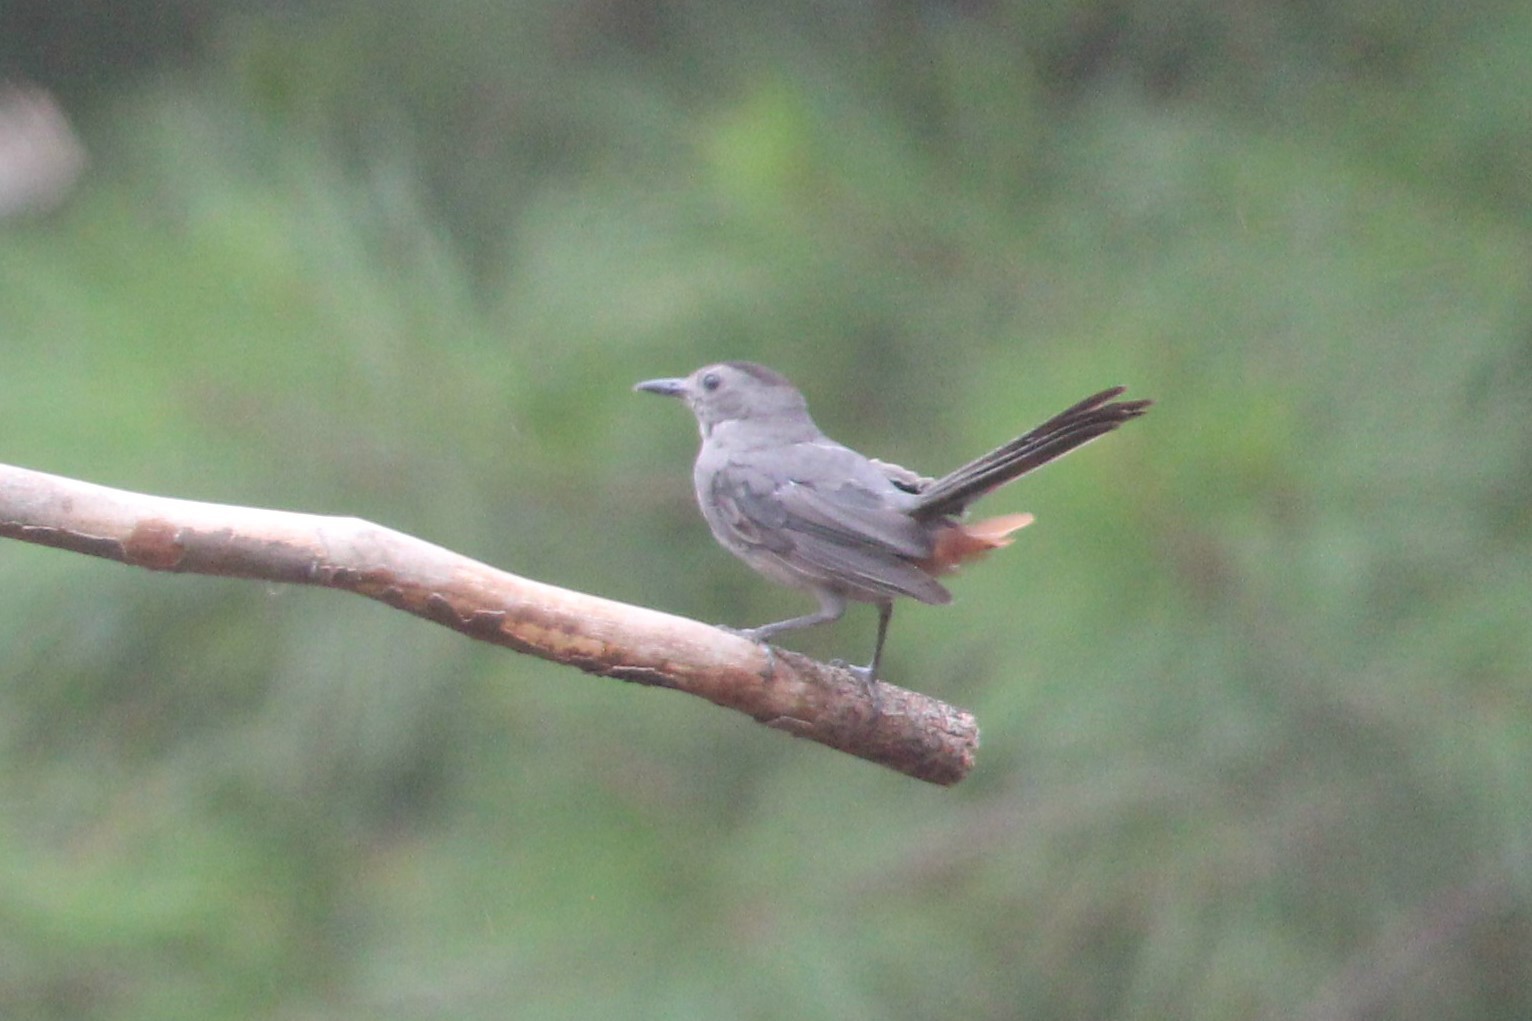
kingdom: Animalia
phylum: Chordata
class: Aves
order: Passeriformes
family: Mimidae
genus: Dumetella
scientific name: Dumetella carolinensis
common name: Gray catbird
